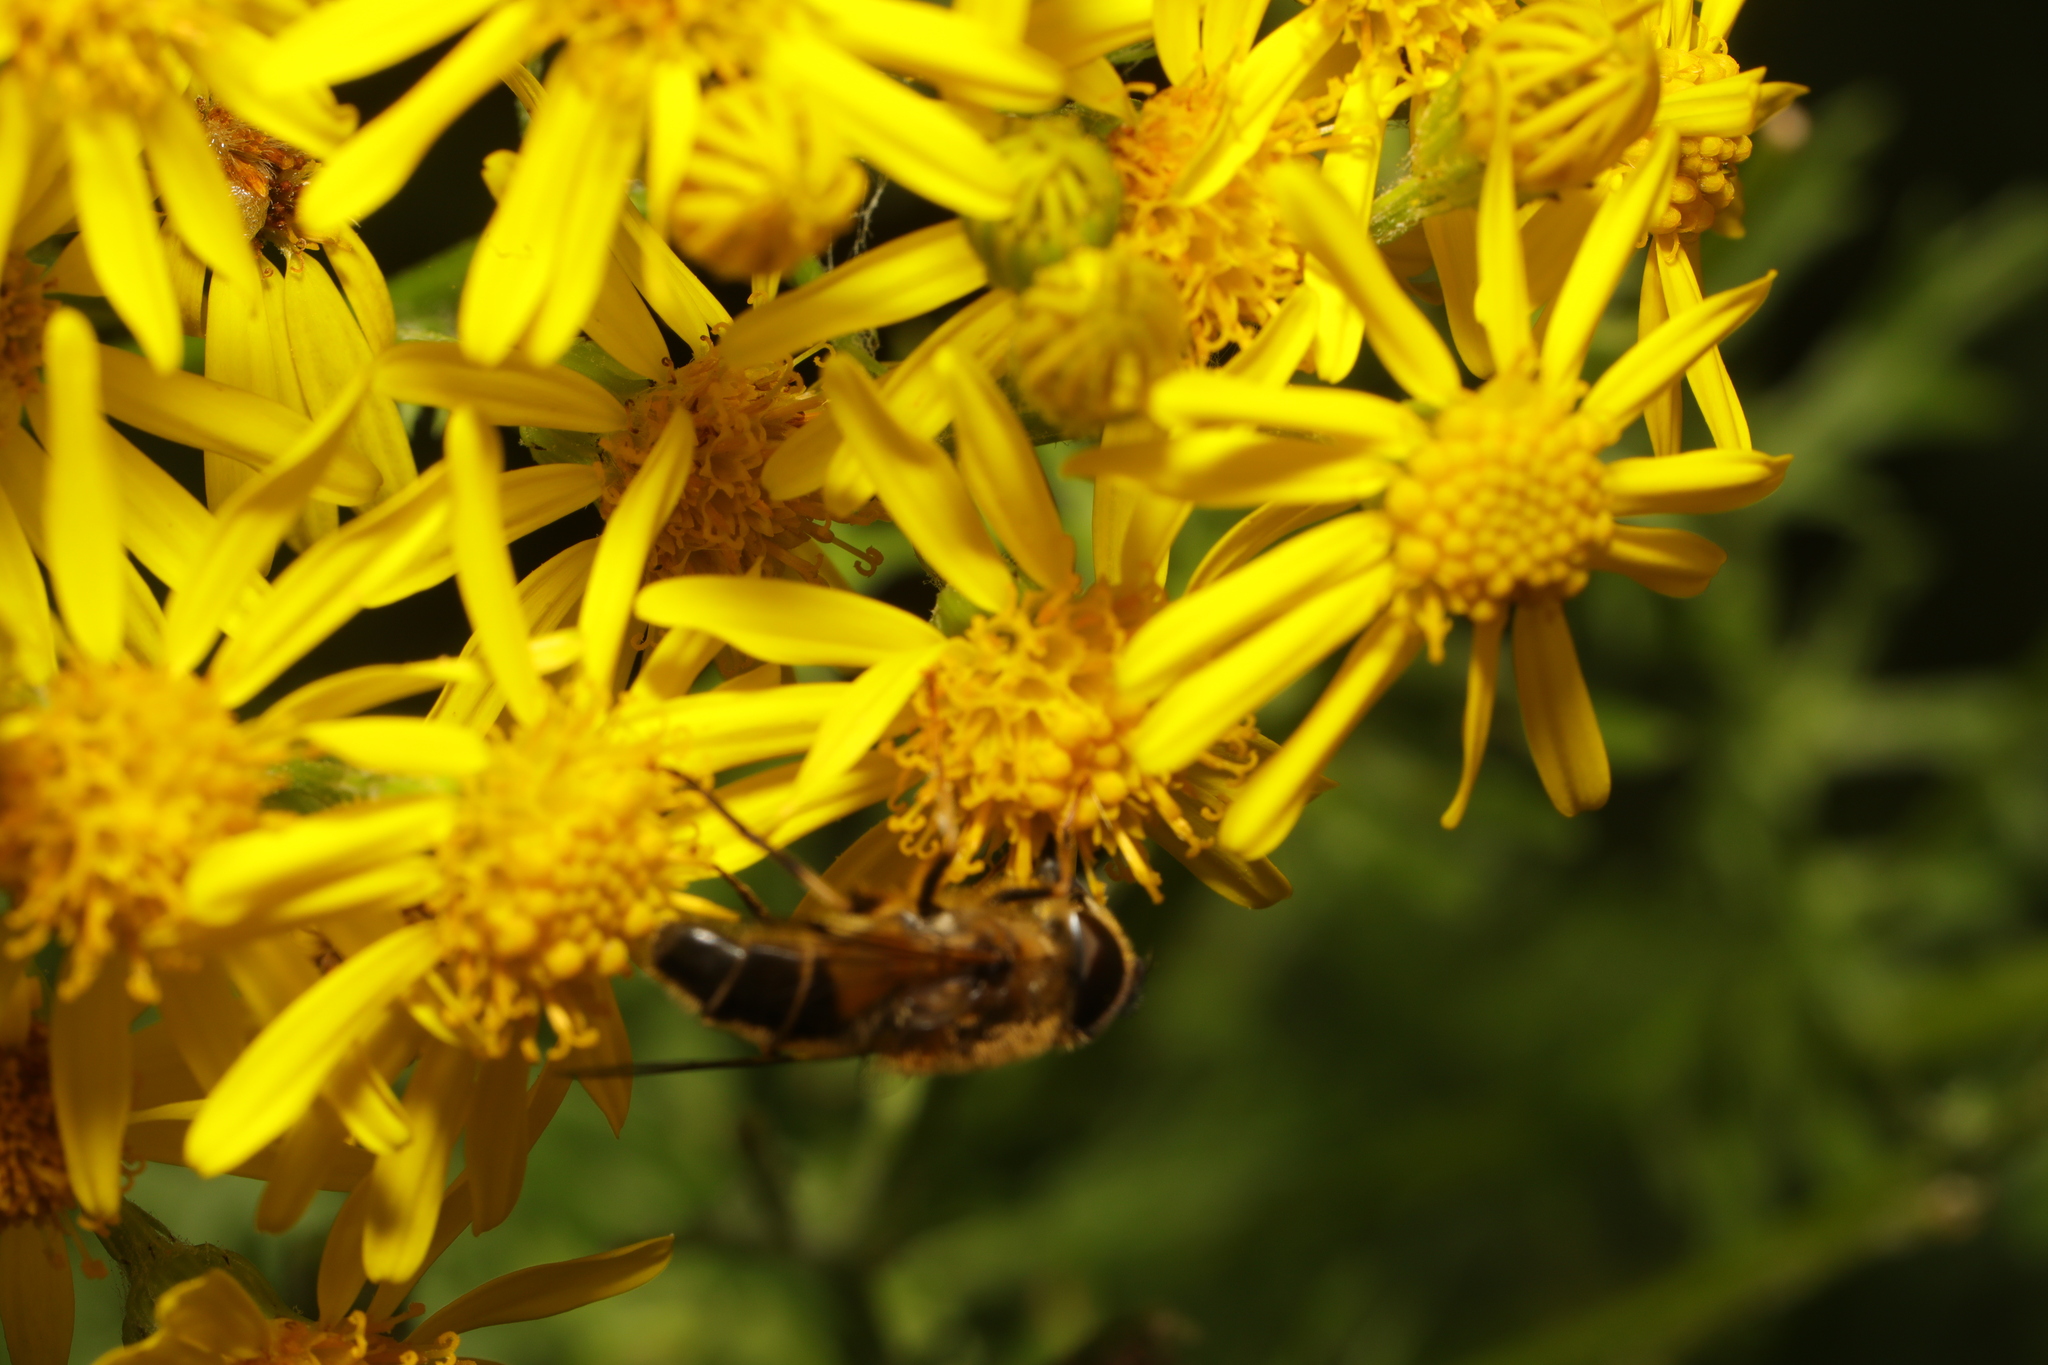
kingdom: Animalia
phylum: Arthropoda
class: Insecta
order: Diptera
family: Syrphidae
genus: Eristalis
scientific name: Eristalis pertinax
